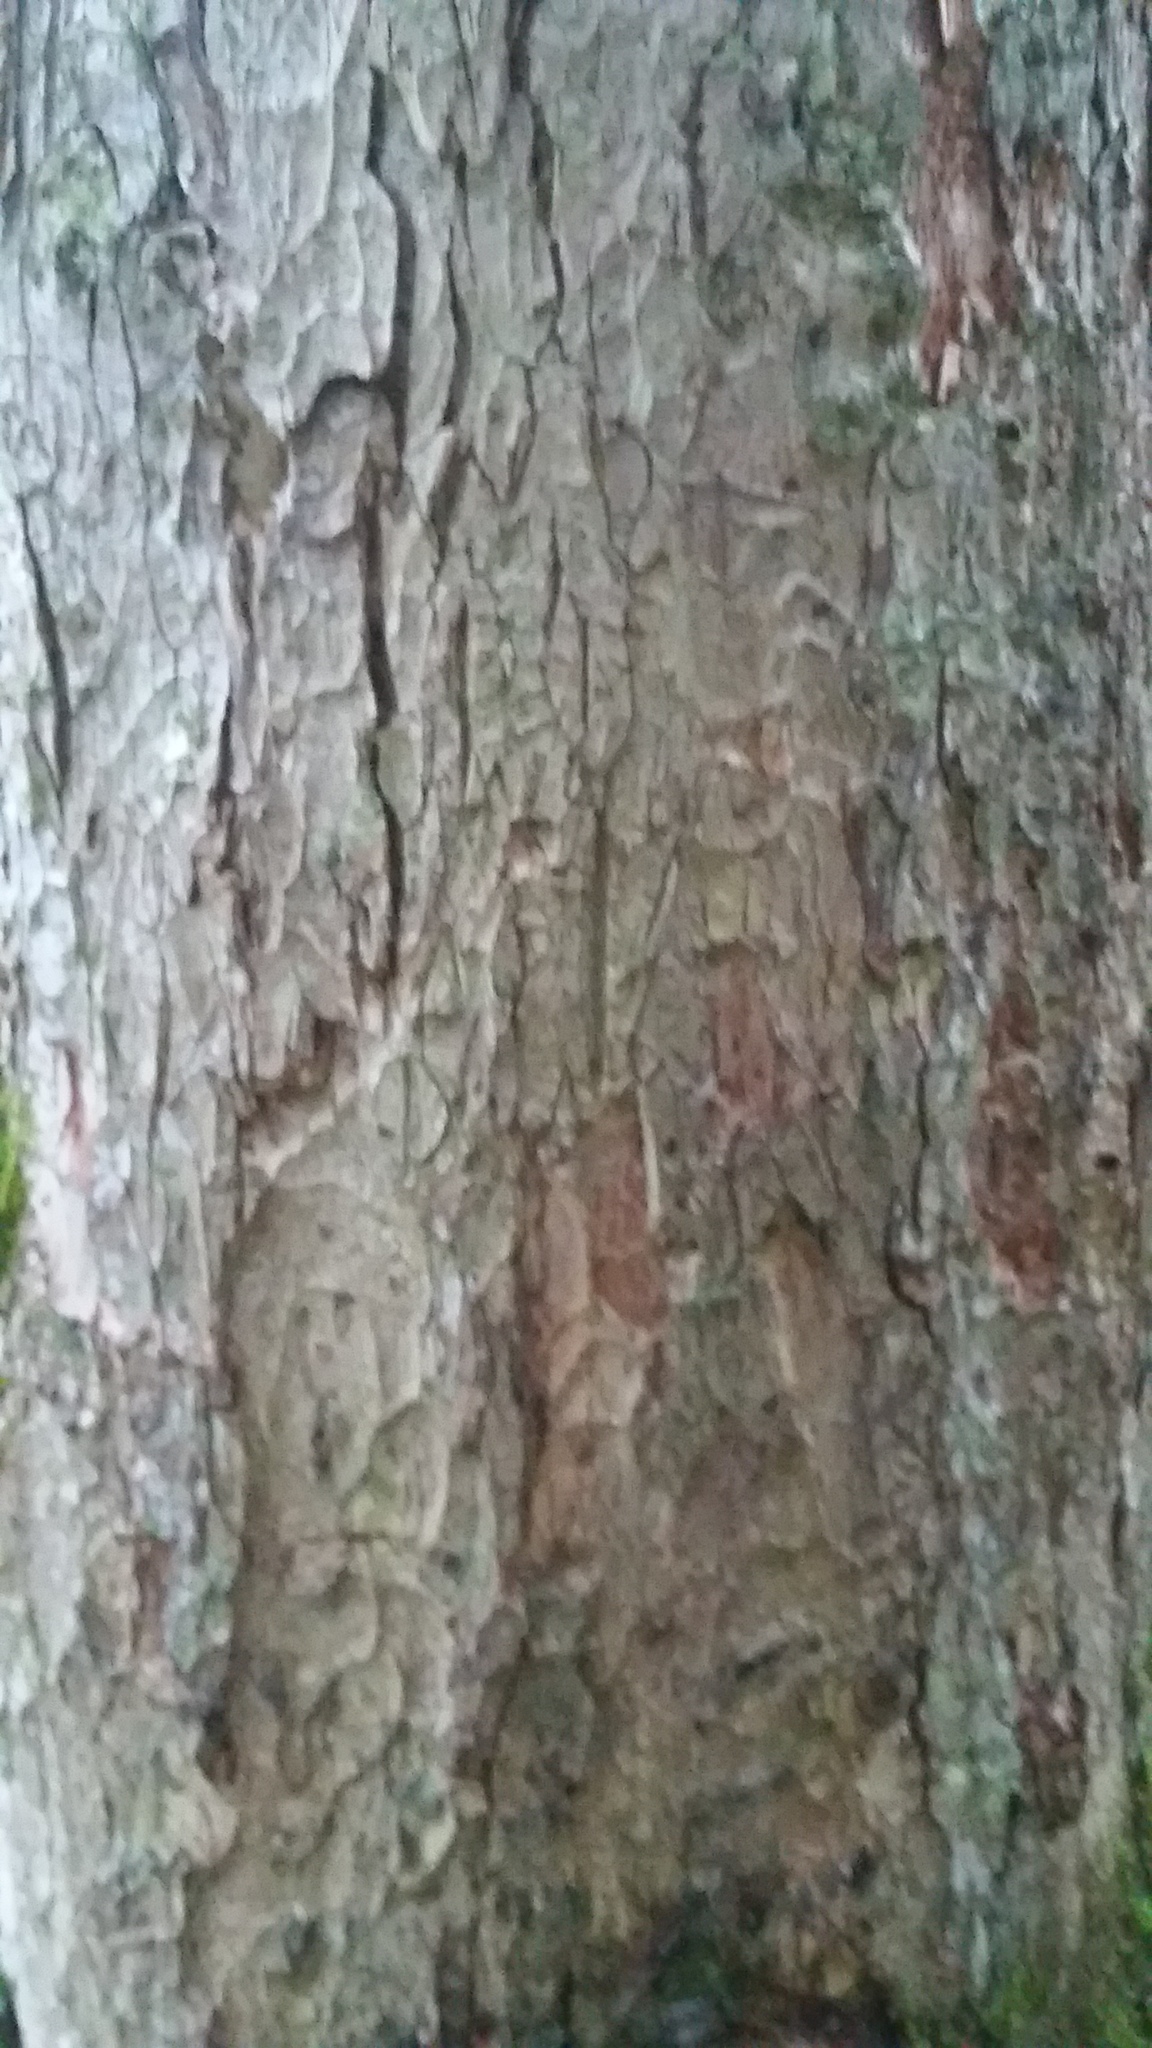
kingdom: Plantae
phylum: Tracheophyta
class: Magnoliopsida
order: Sapindales
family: Sapindaceae
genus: Aesculus
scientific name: Aesculus flava
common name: Yellow buckeye
